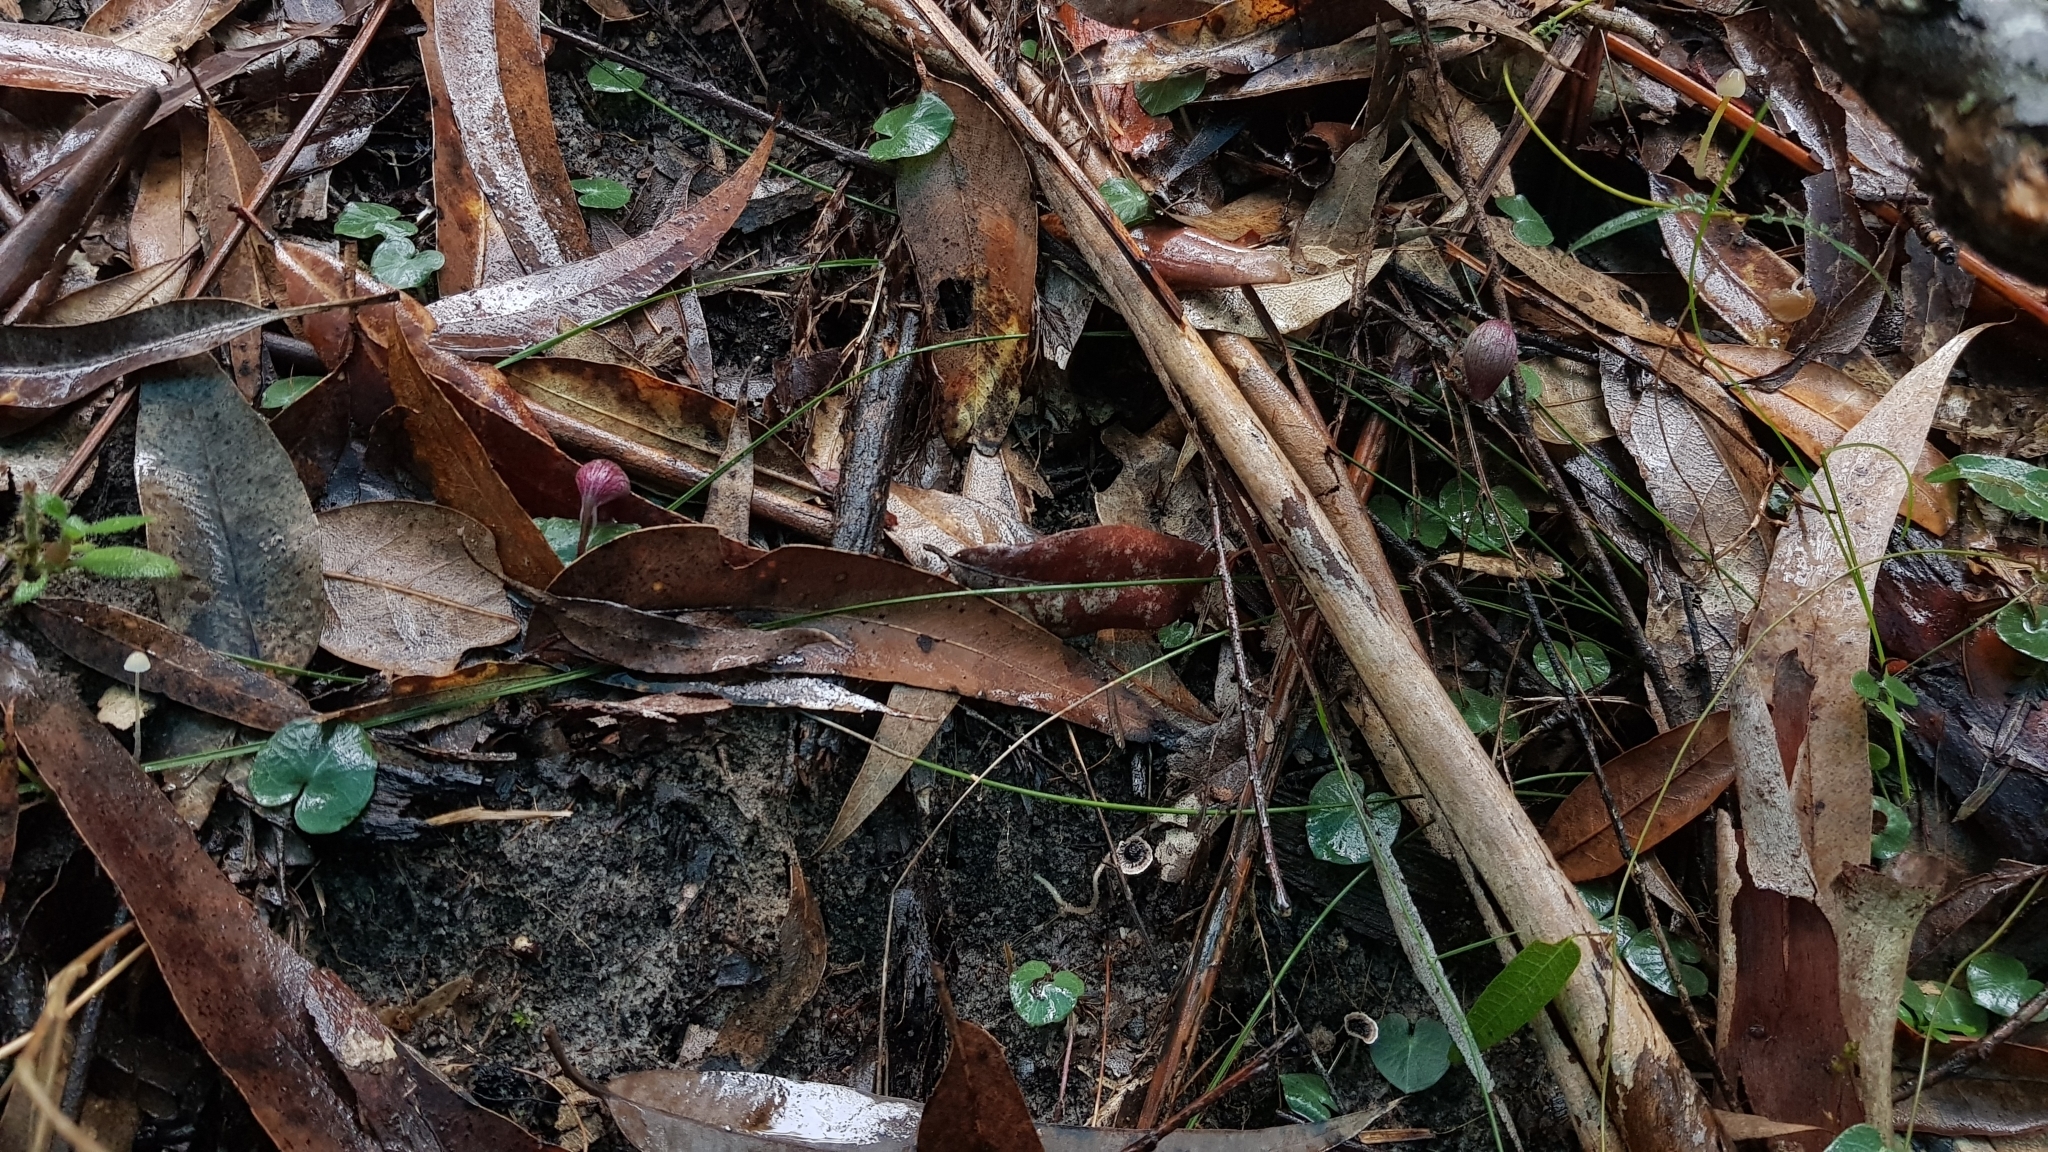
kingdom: Plantae
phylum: Tracheophyta
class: Liliopsida
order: Asparagales
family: Orchidaceae
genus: Corybas
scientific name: Corybas aconitiflorus
